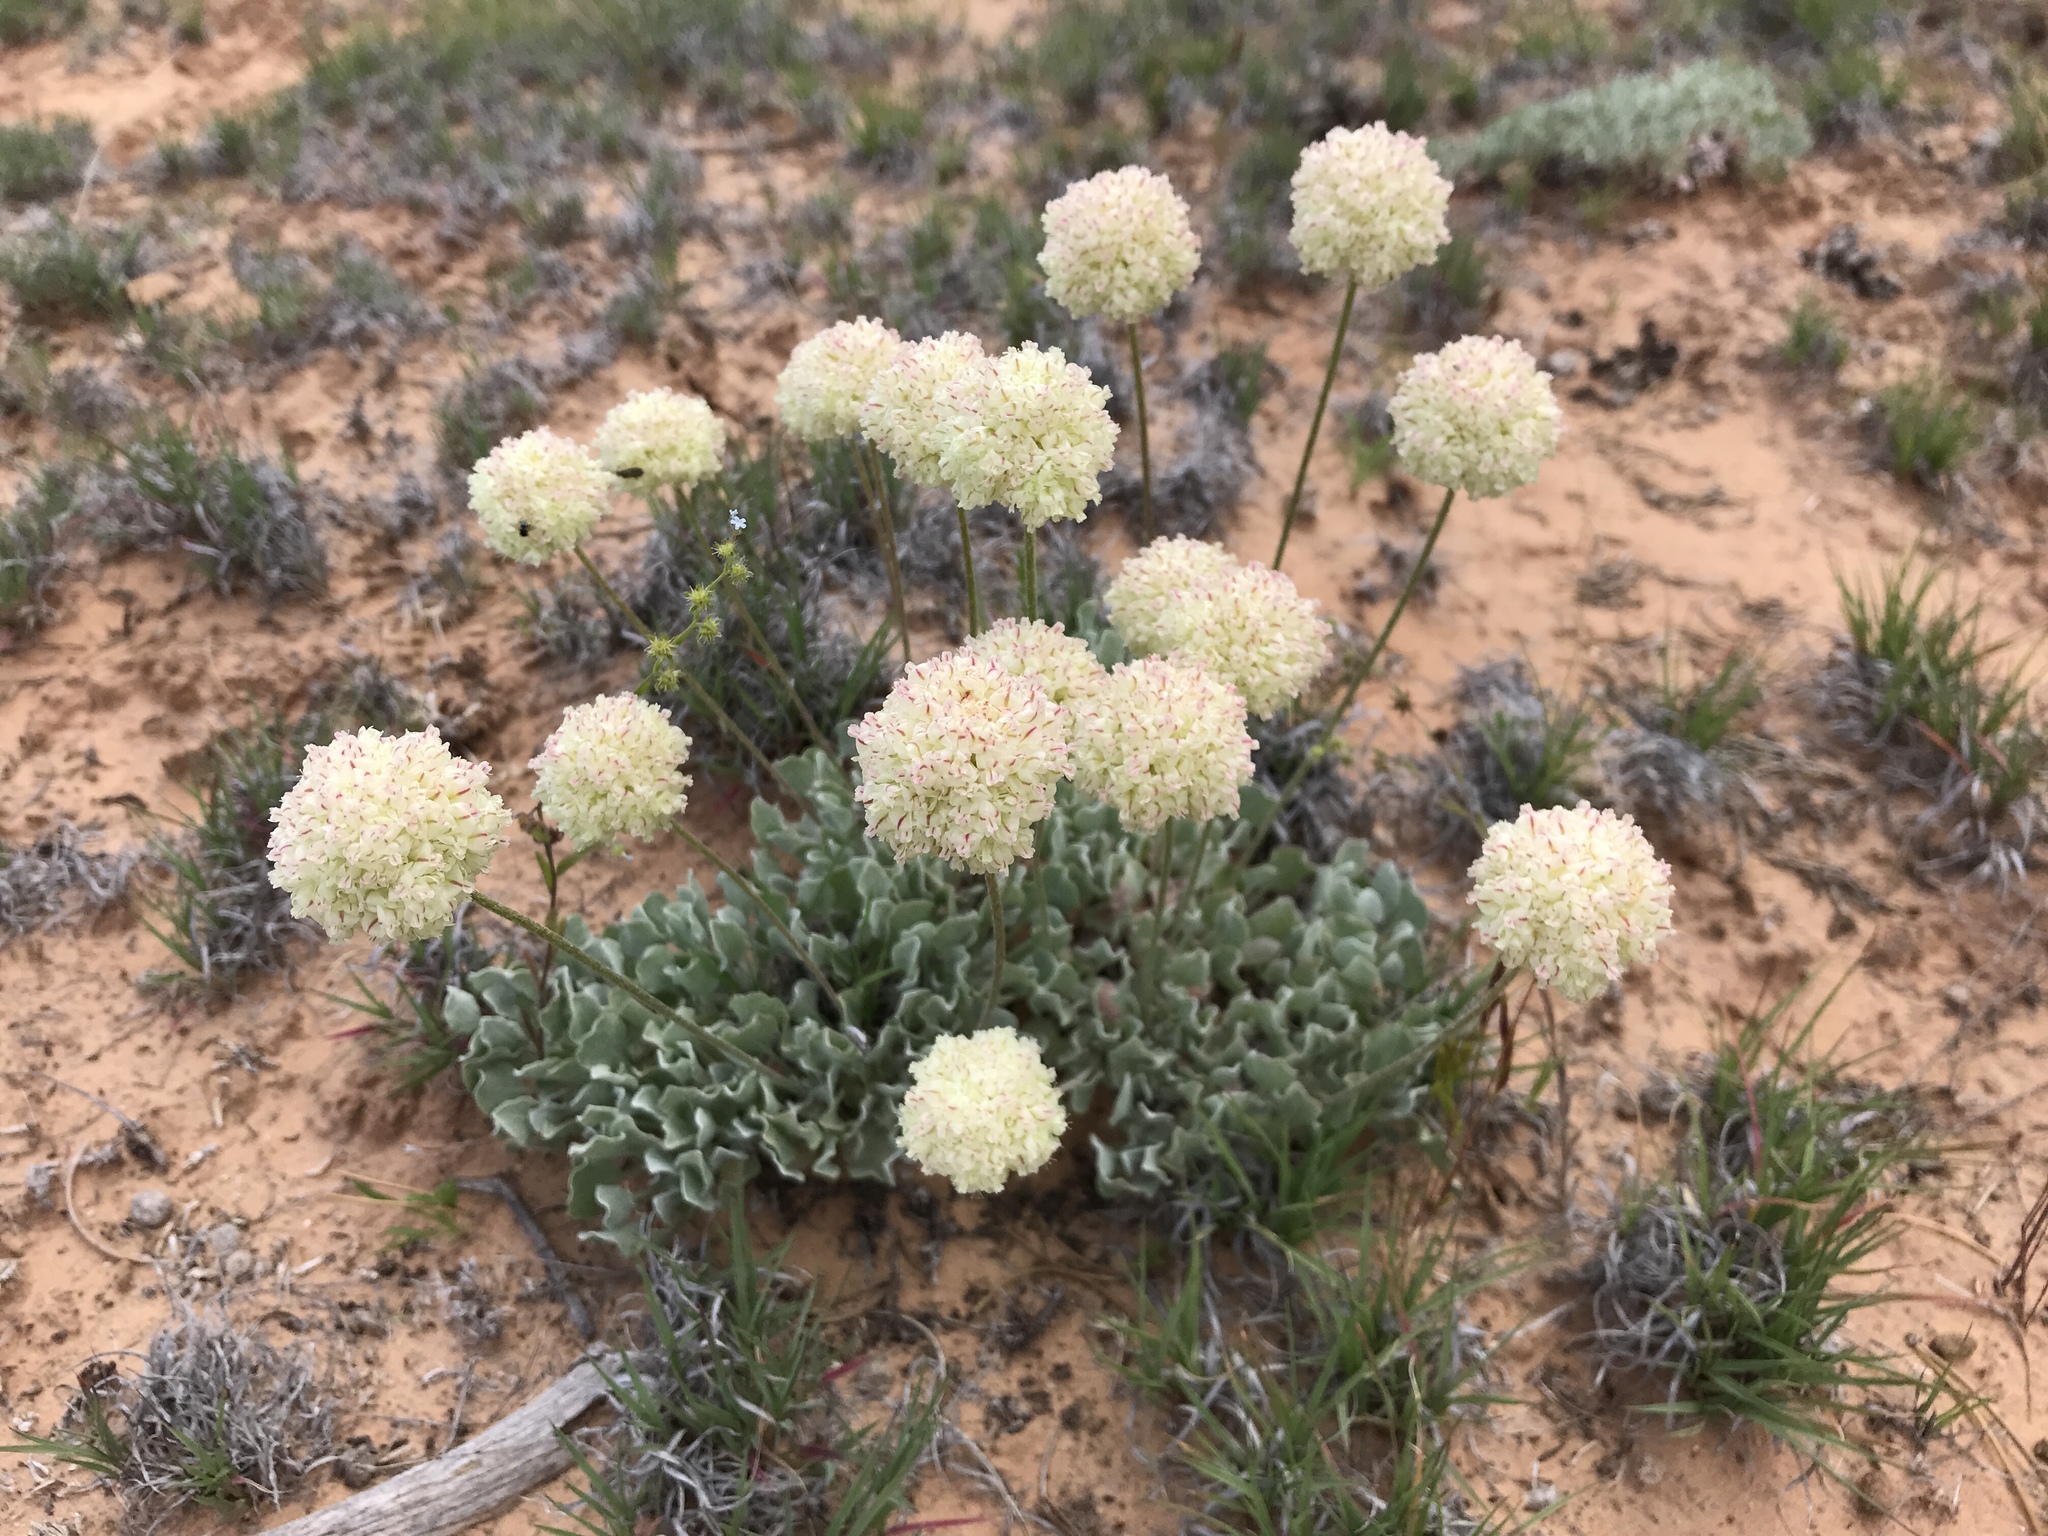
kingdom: Plantae
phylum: Tracheophyta
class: Magnoliopsida
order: Caryophyllales
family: Polygonaceae
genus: Eriogonum
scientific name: Eriogonum ovalifolium
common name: Cushion buckwheat
